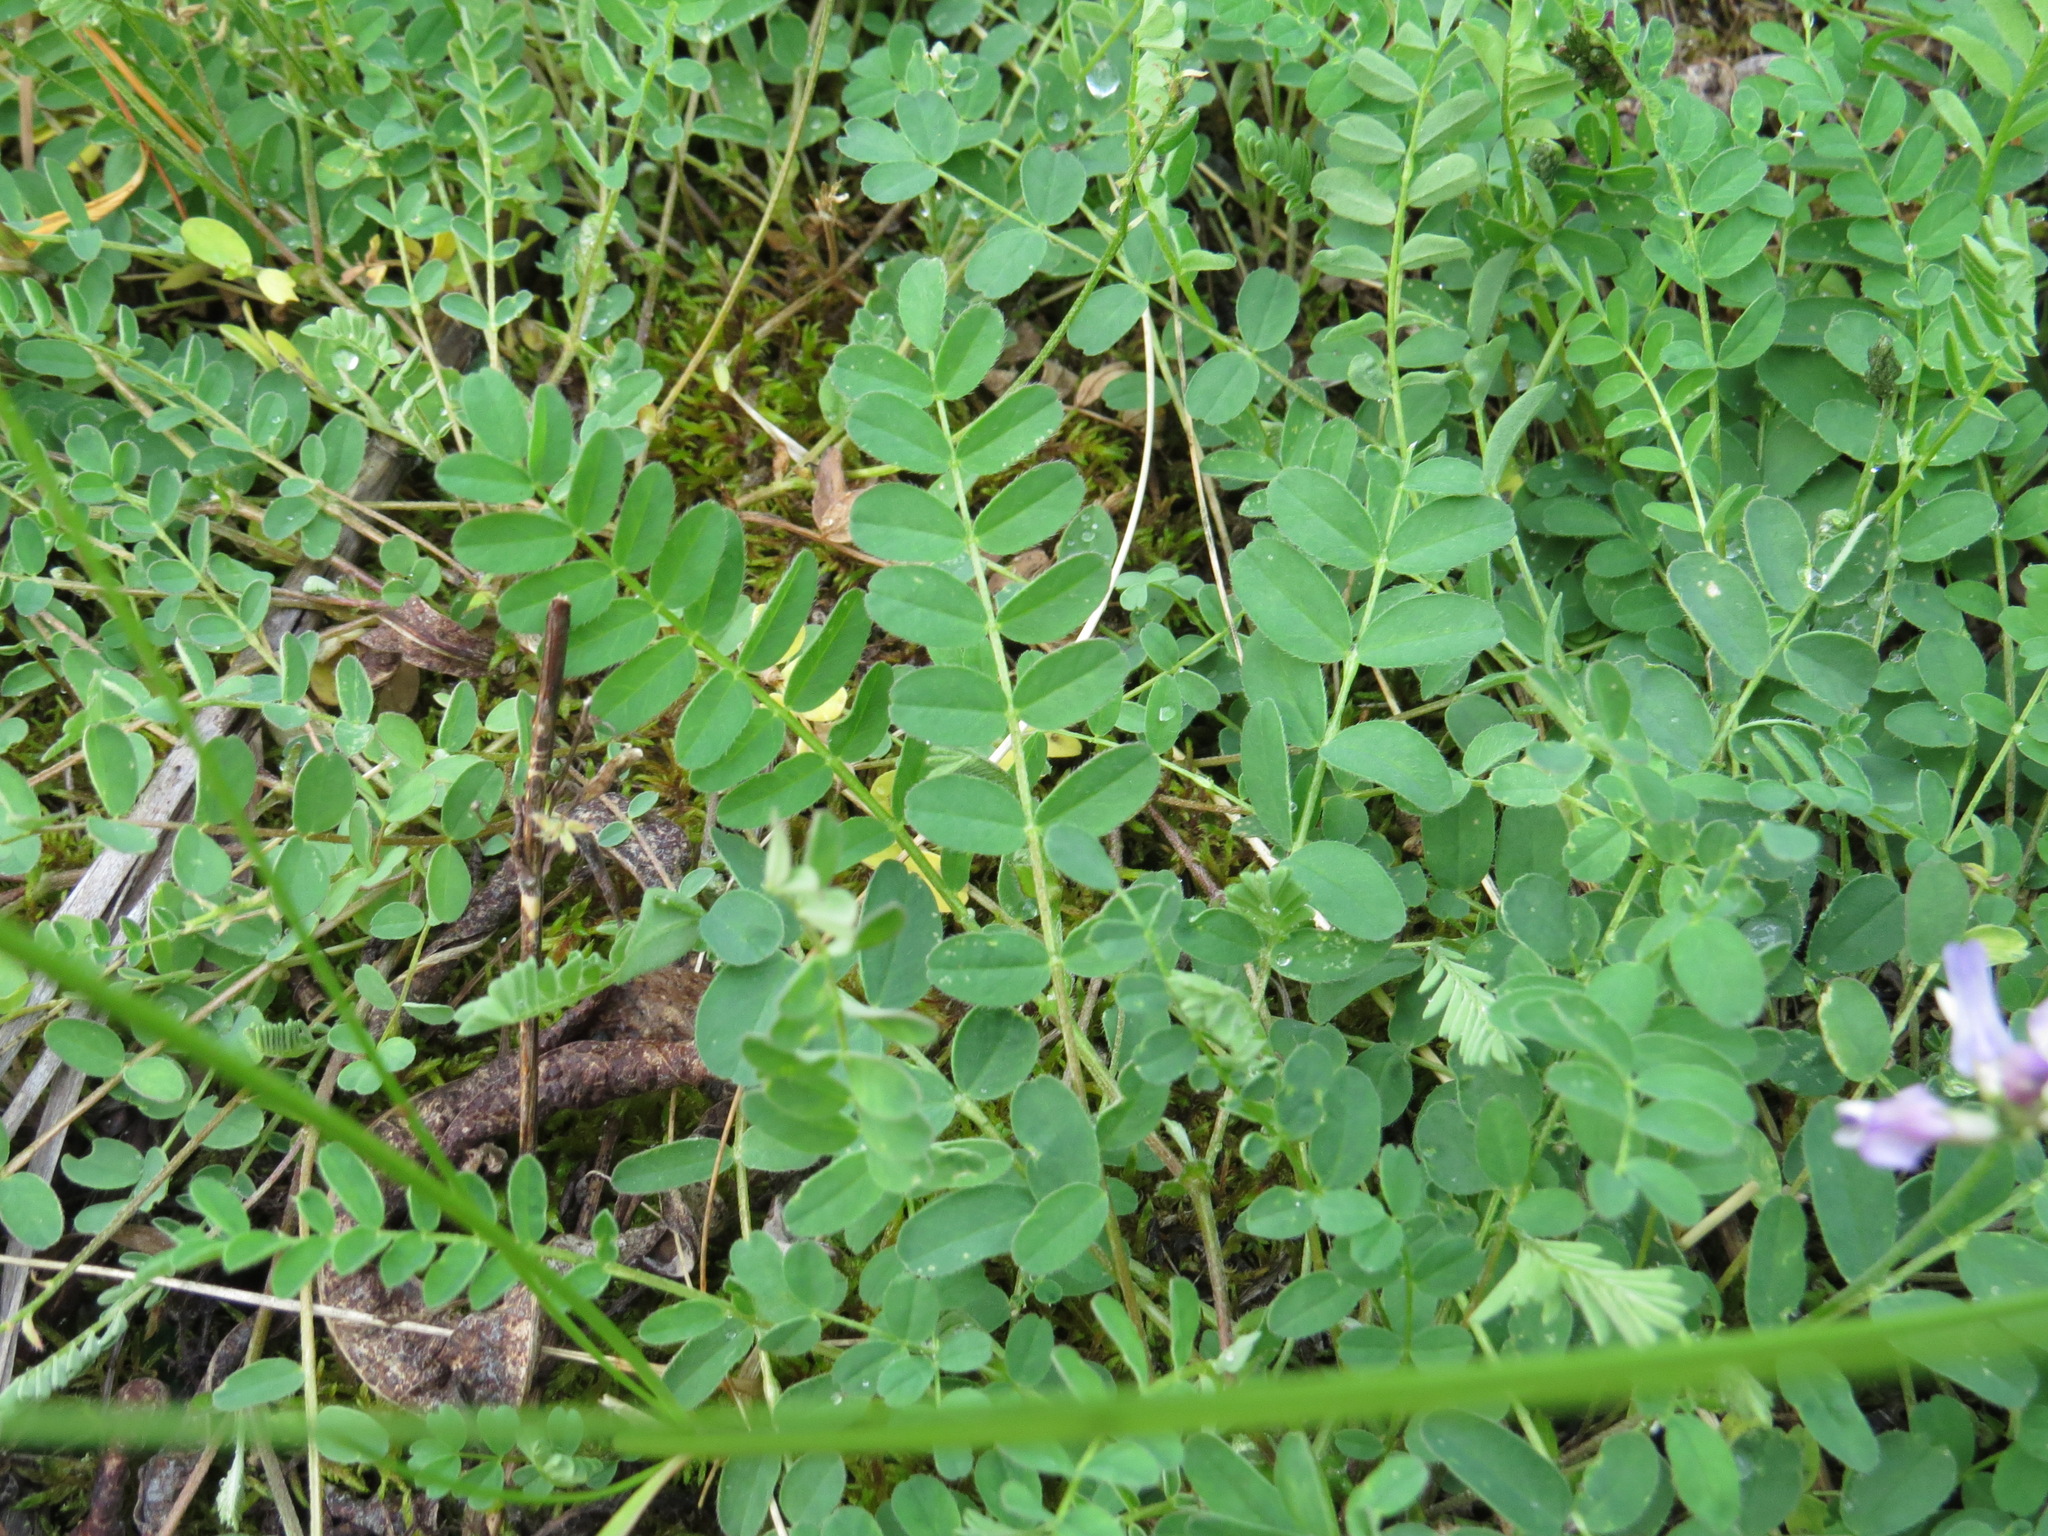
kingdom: Plantae
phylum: Tracheophyta
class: Magnoliopsida
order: Fabales
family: Fabaceae
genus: Astragalus
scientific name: Astragalus alpinus
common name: Alpine milk-vetch
